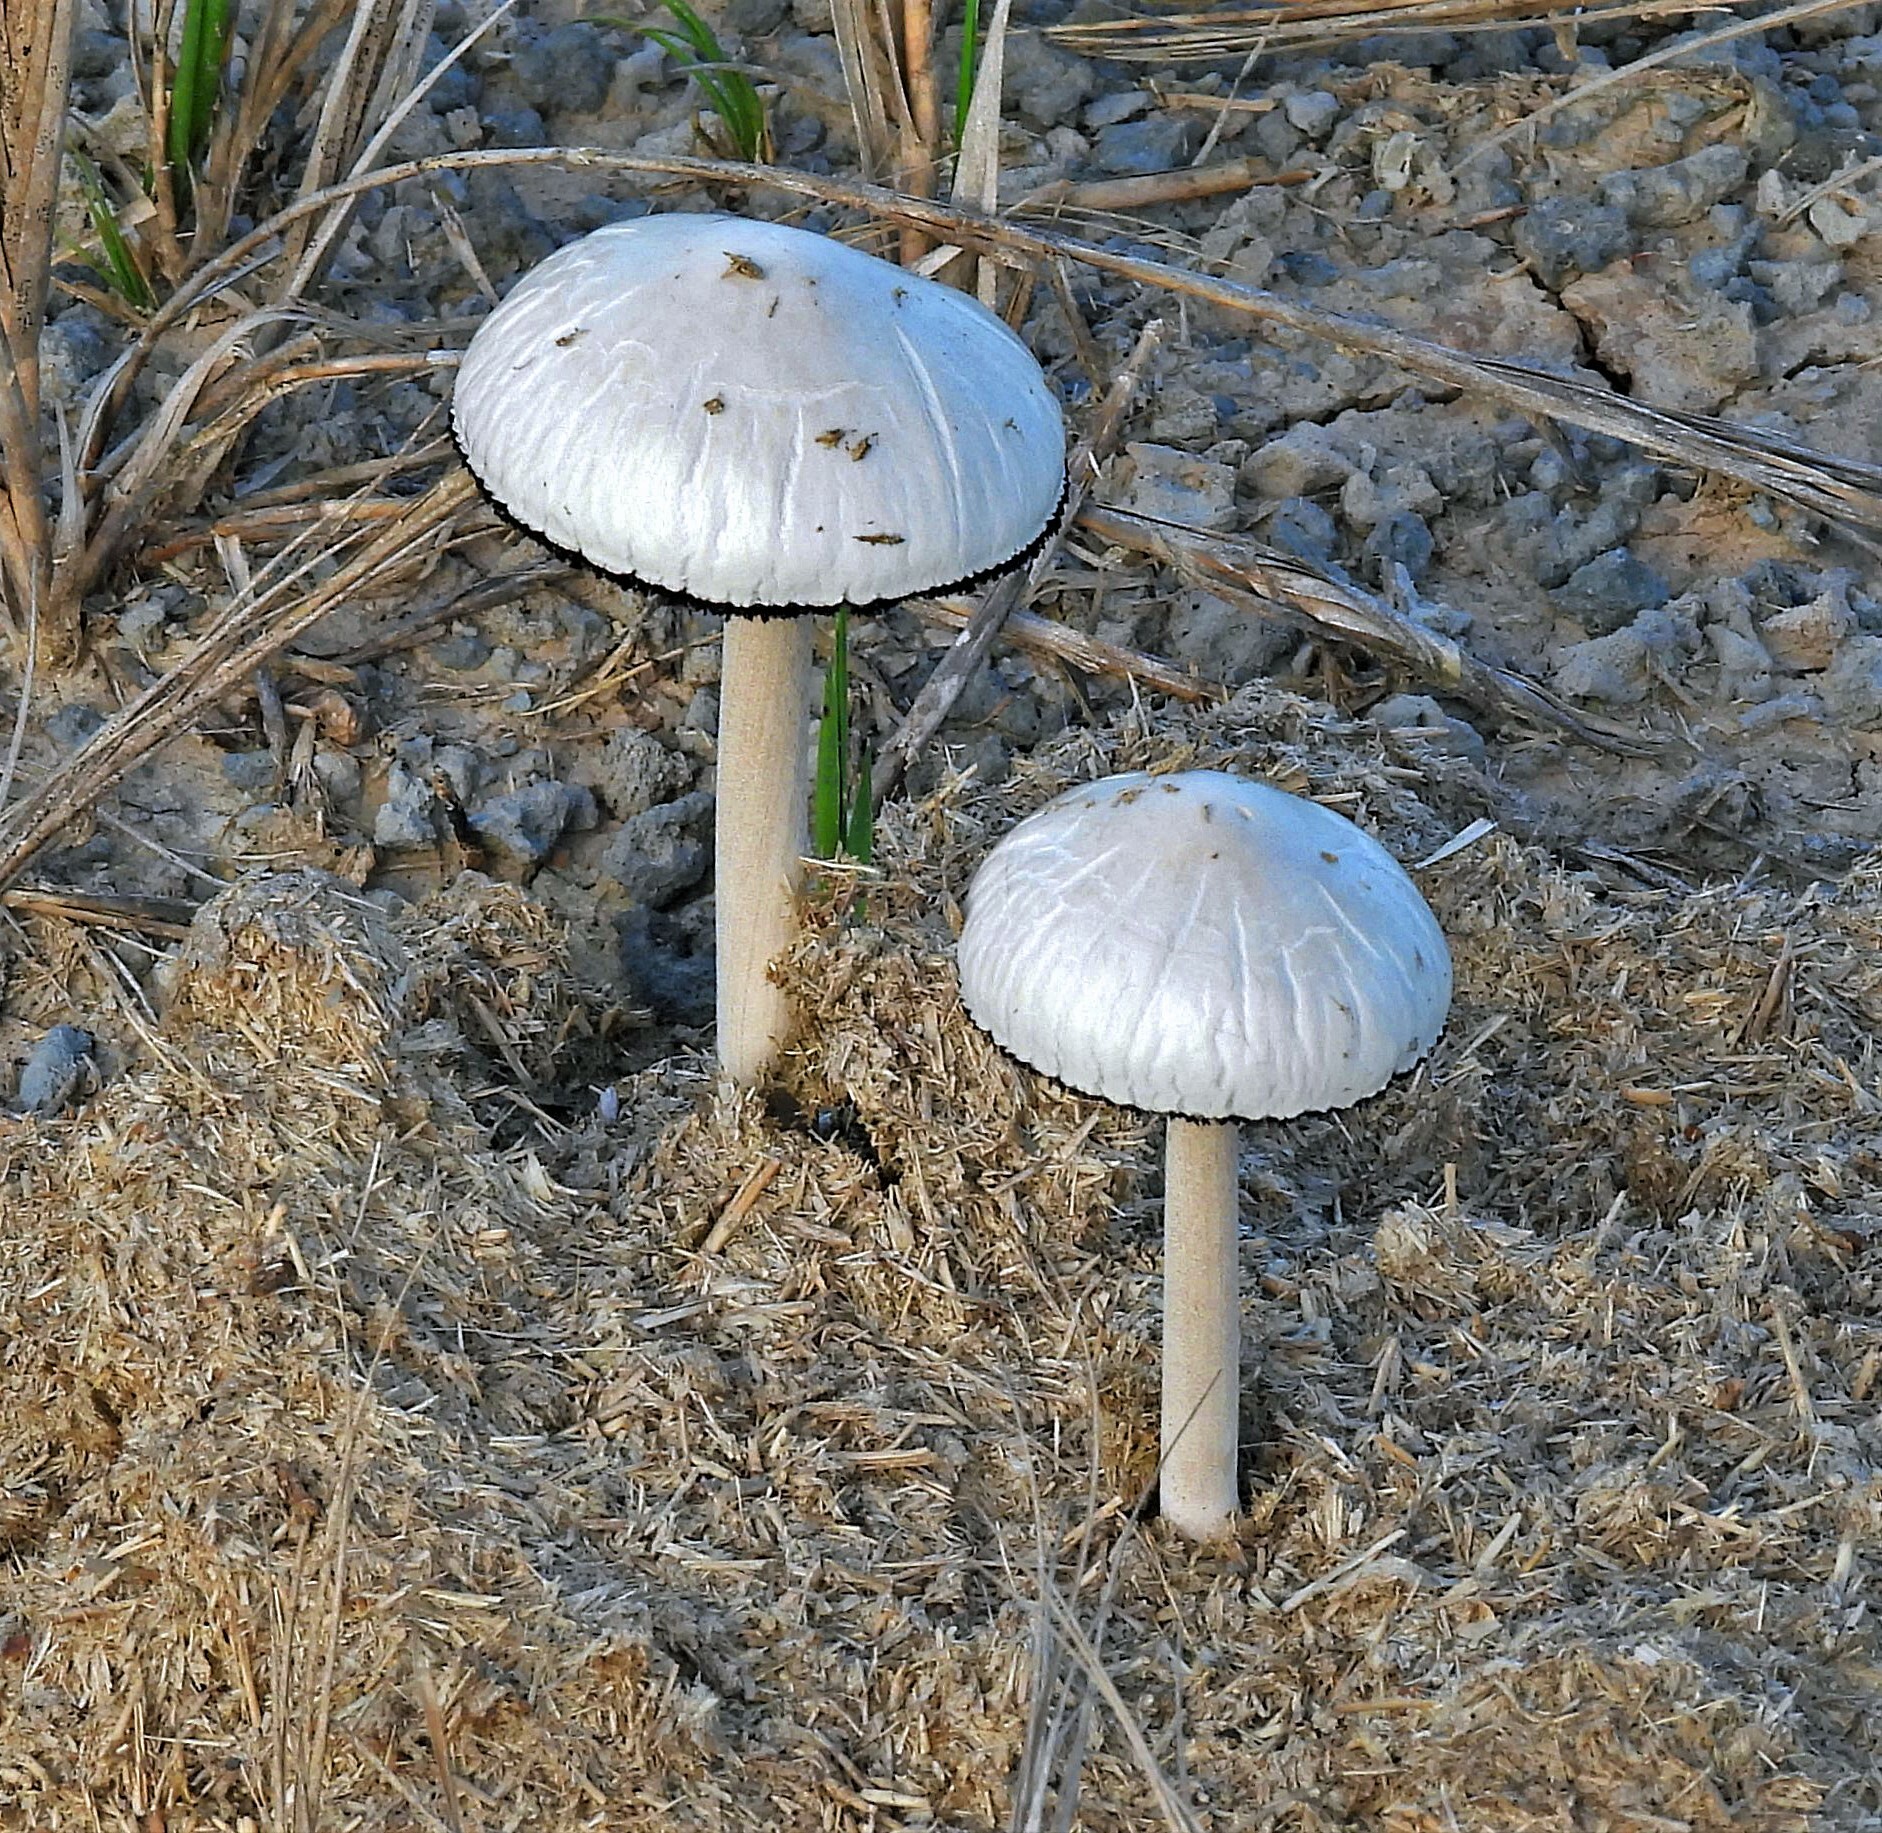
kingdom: Fungi
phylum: Basidiomycota
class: Agaricomycetes
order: Agaricales
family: Bolbitiaceae
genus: Panaeolus
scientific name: Panaeolus antillarum
